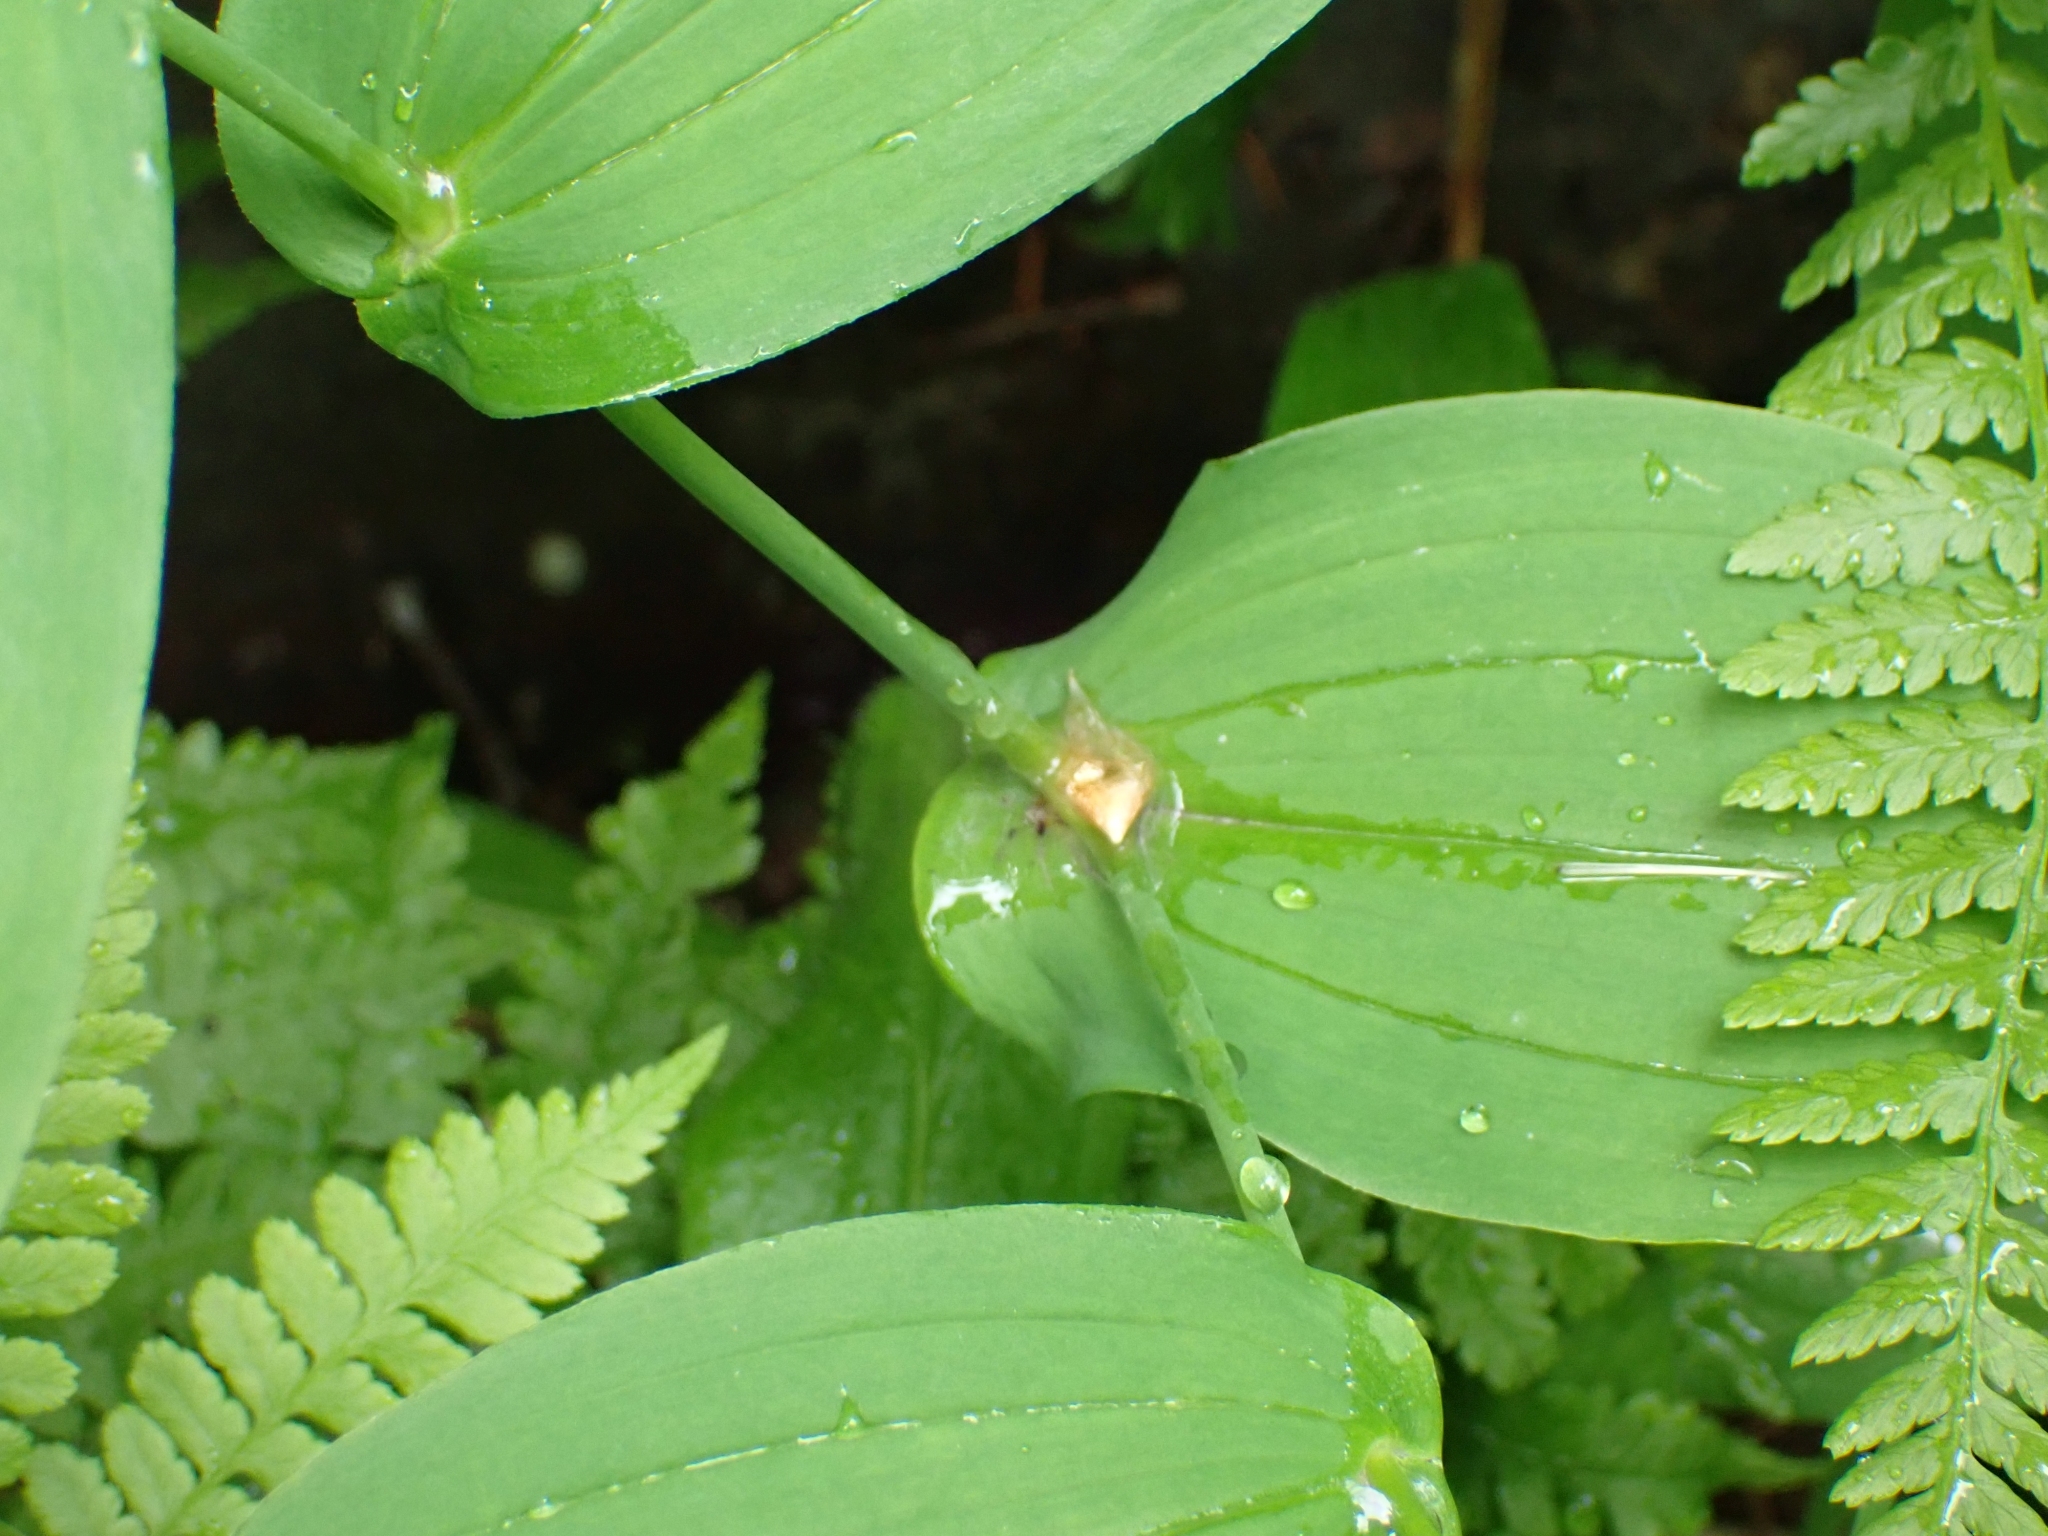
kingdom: Plantae
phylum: Tracheophyta
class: Liliopsida
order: Liliales
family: Liliaceae
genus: Streptopus
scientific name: Streptopus amplexifolius
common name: Clasp twisted stalk
